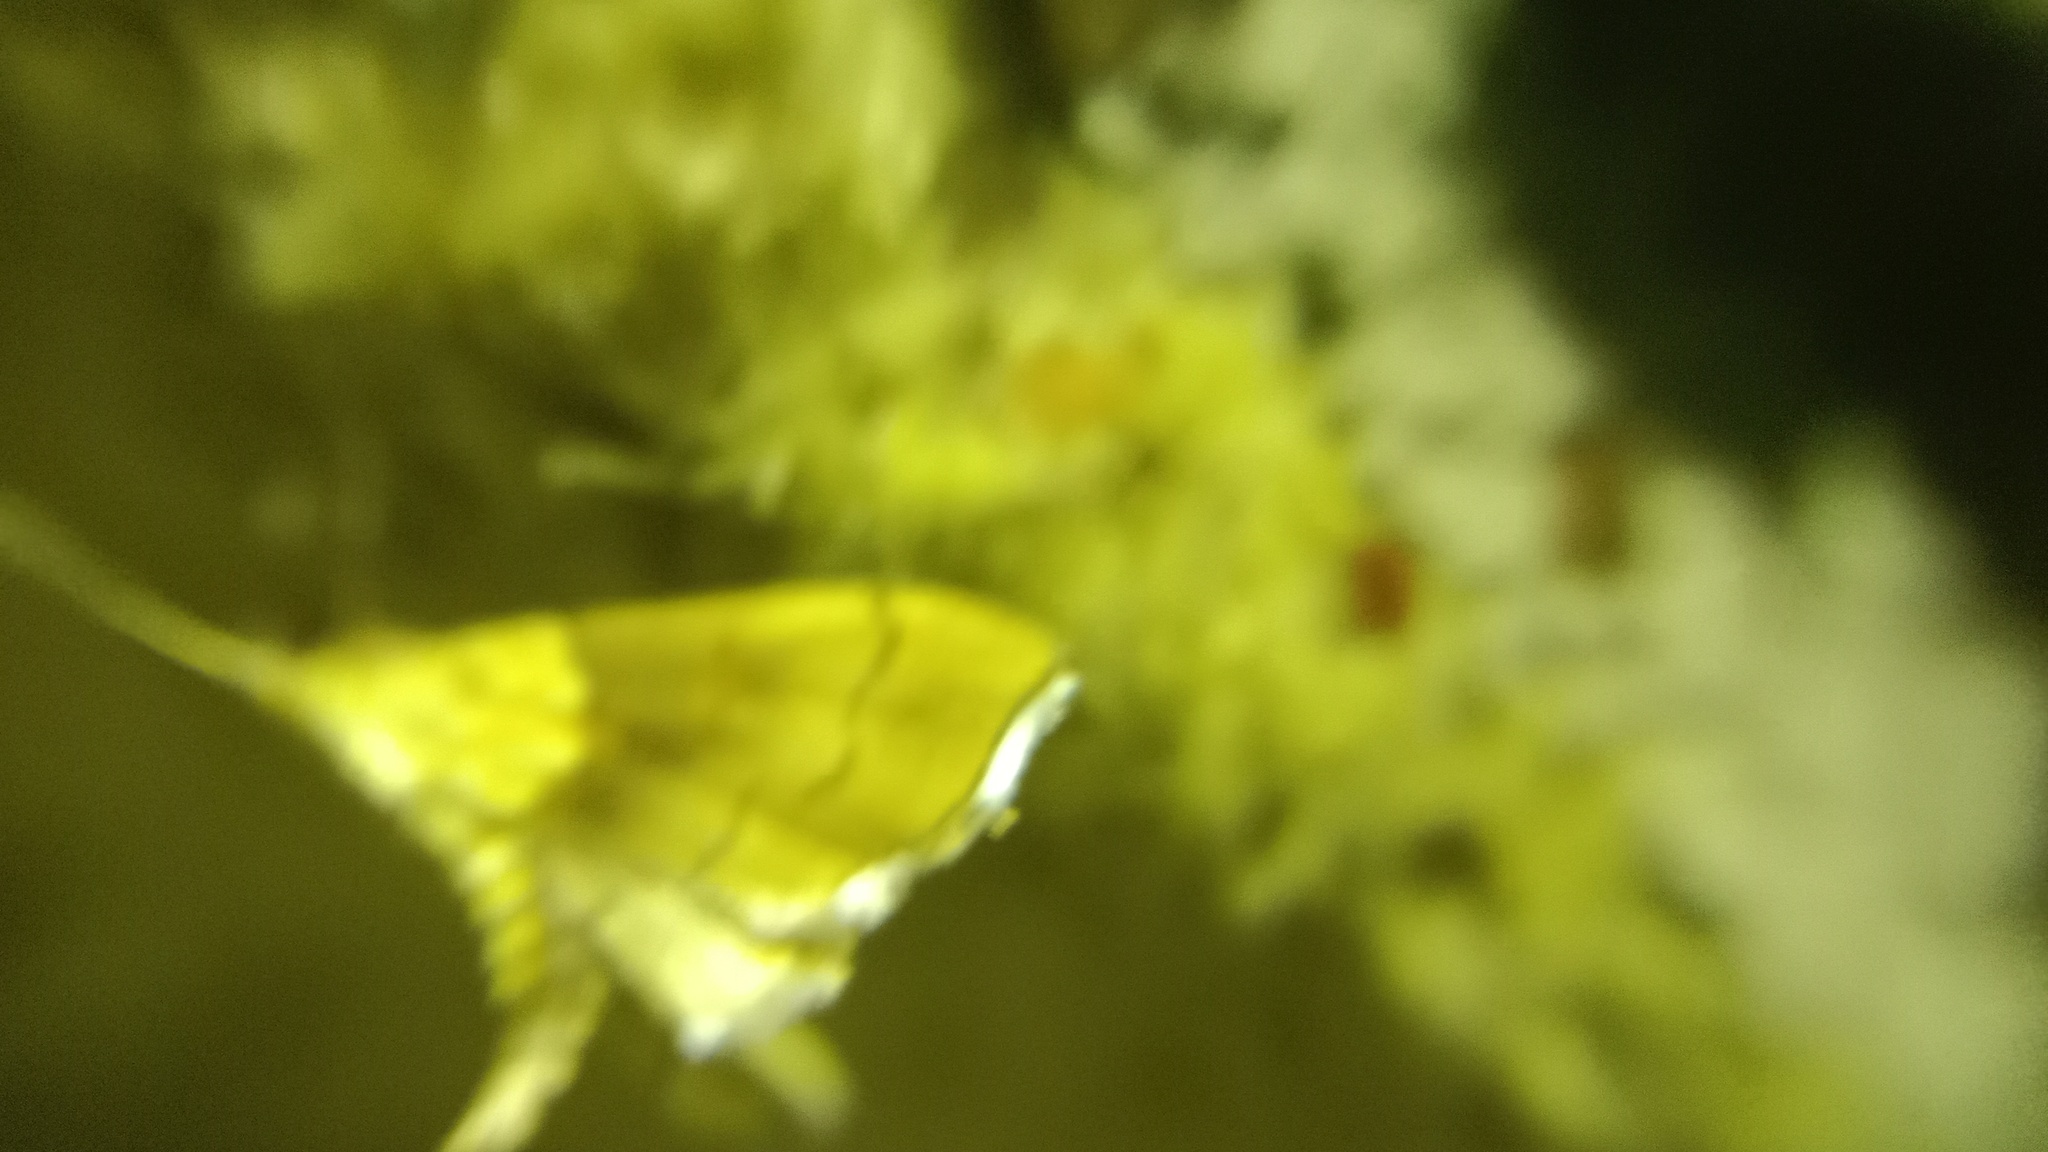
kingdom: Animalia
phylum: Arthropoda
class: Insecta
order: Lepidoptera
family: Crambidae
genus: Agrotera
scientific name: Agrotera nemoralis
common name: Beautiful pearl
